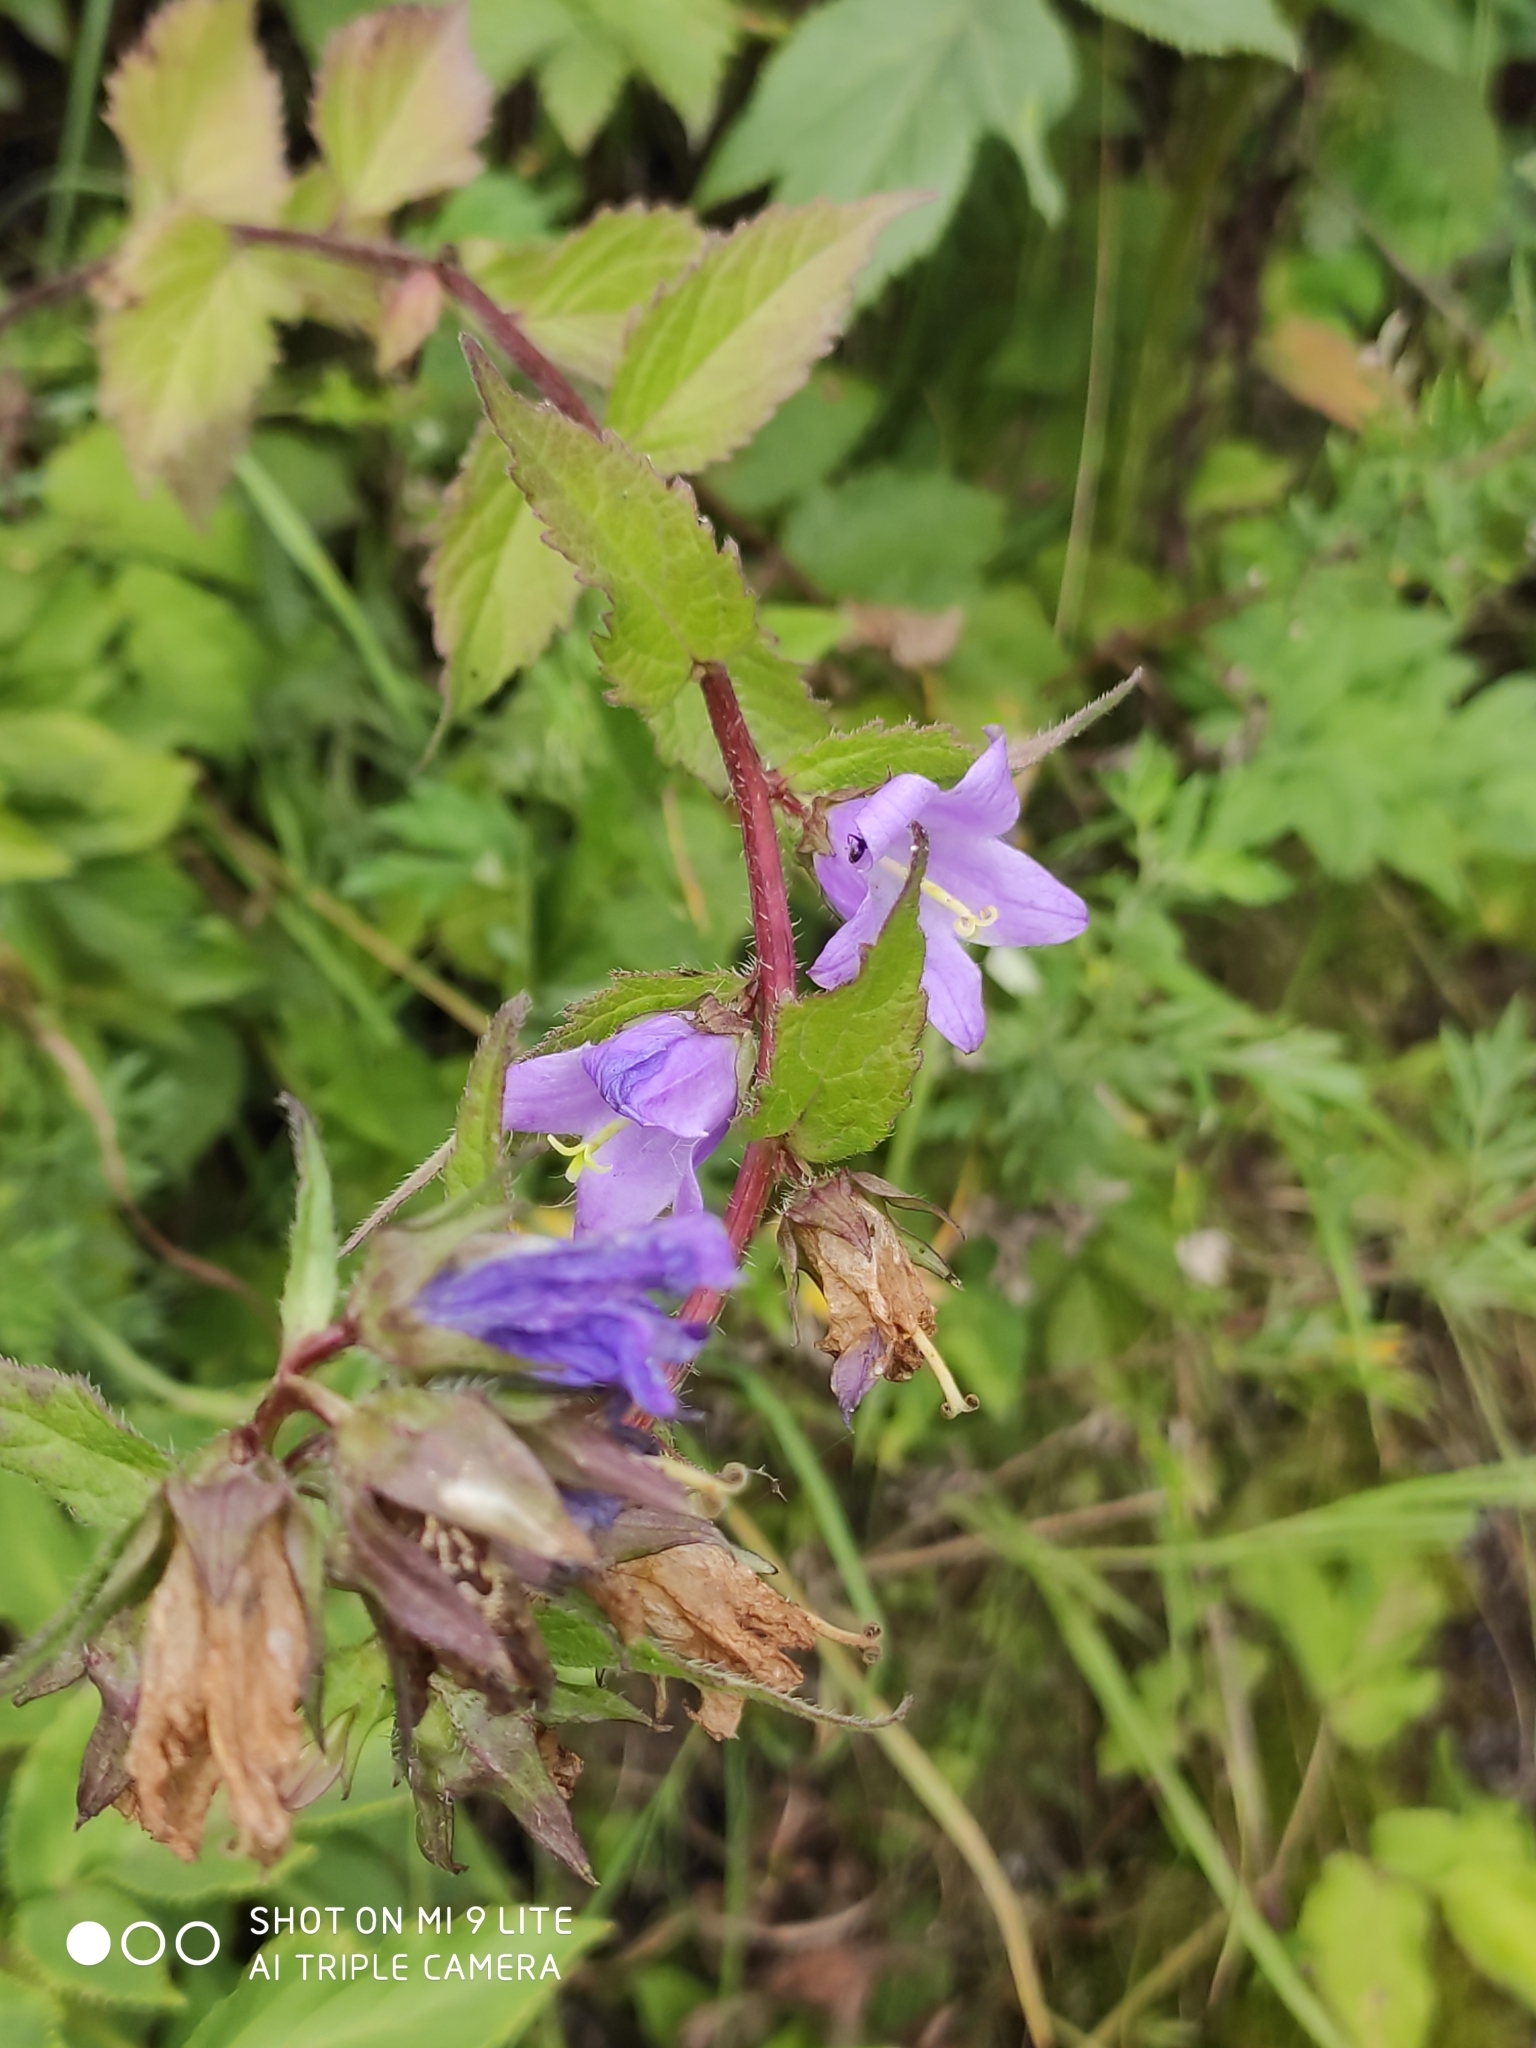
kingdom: Plantae
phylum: Tracheophyta
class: Magnoliopsida
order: Asterales
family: Campanulaceae
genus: Campanula
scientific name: Campanula trachelium
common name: Nettle-leaved bellflower
